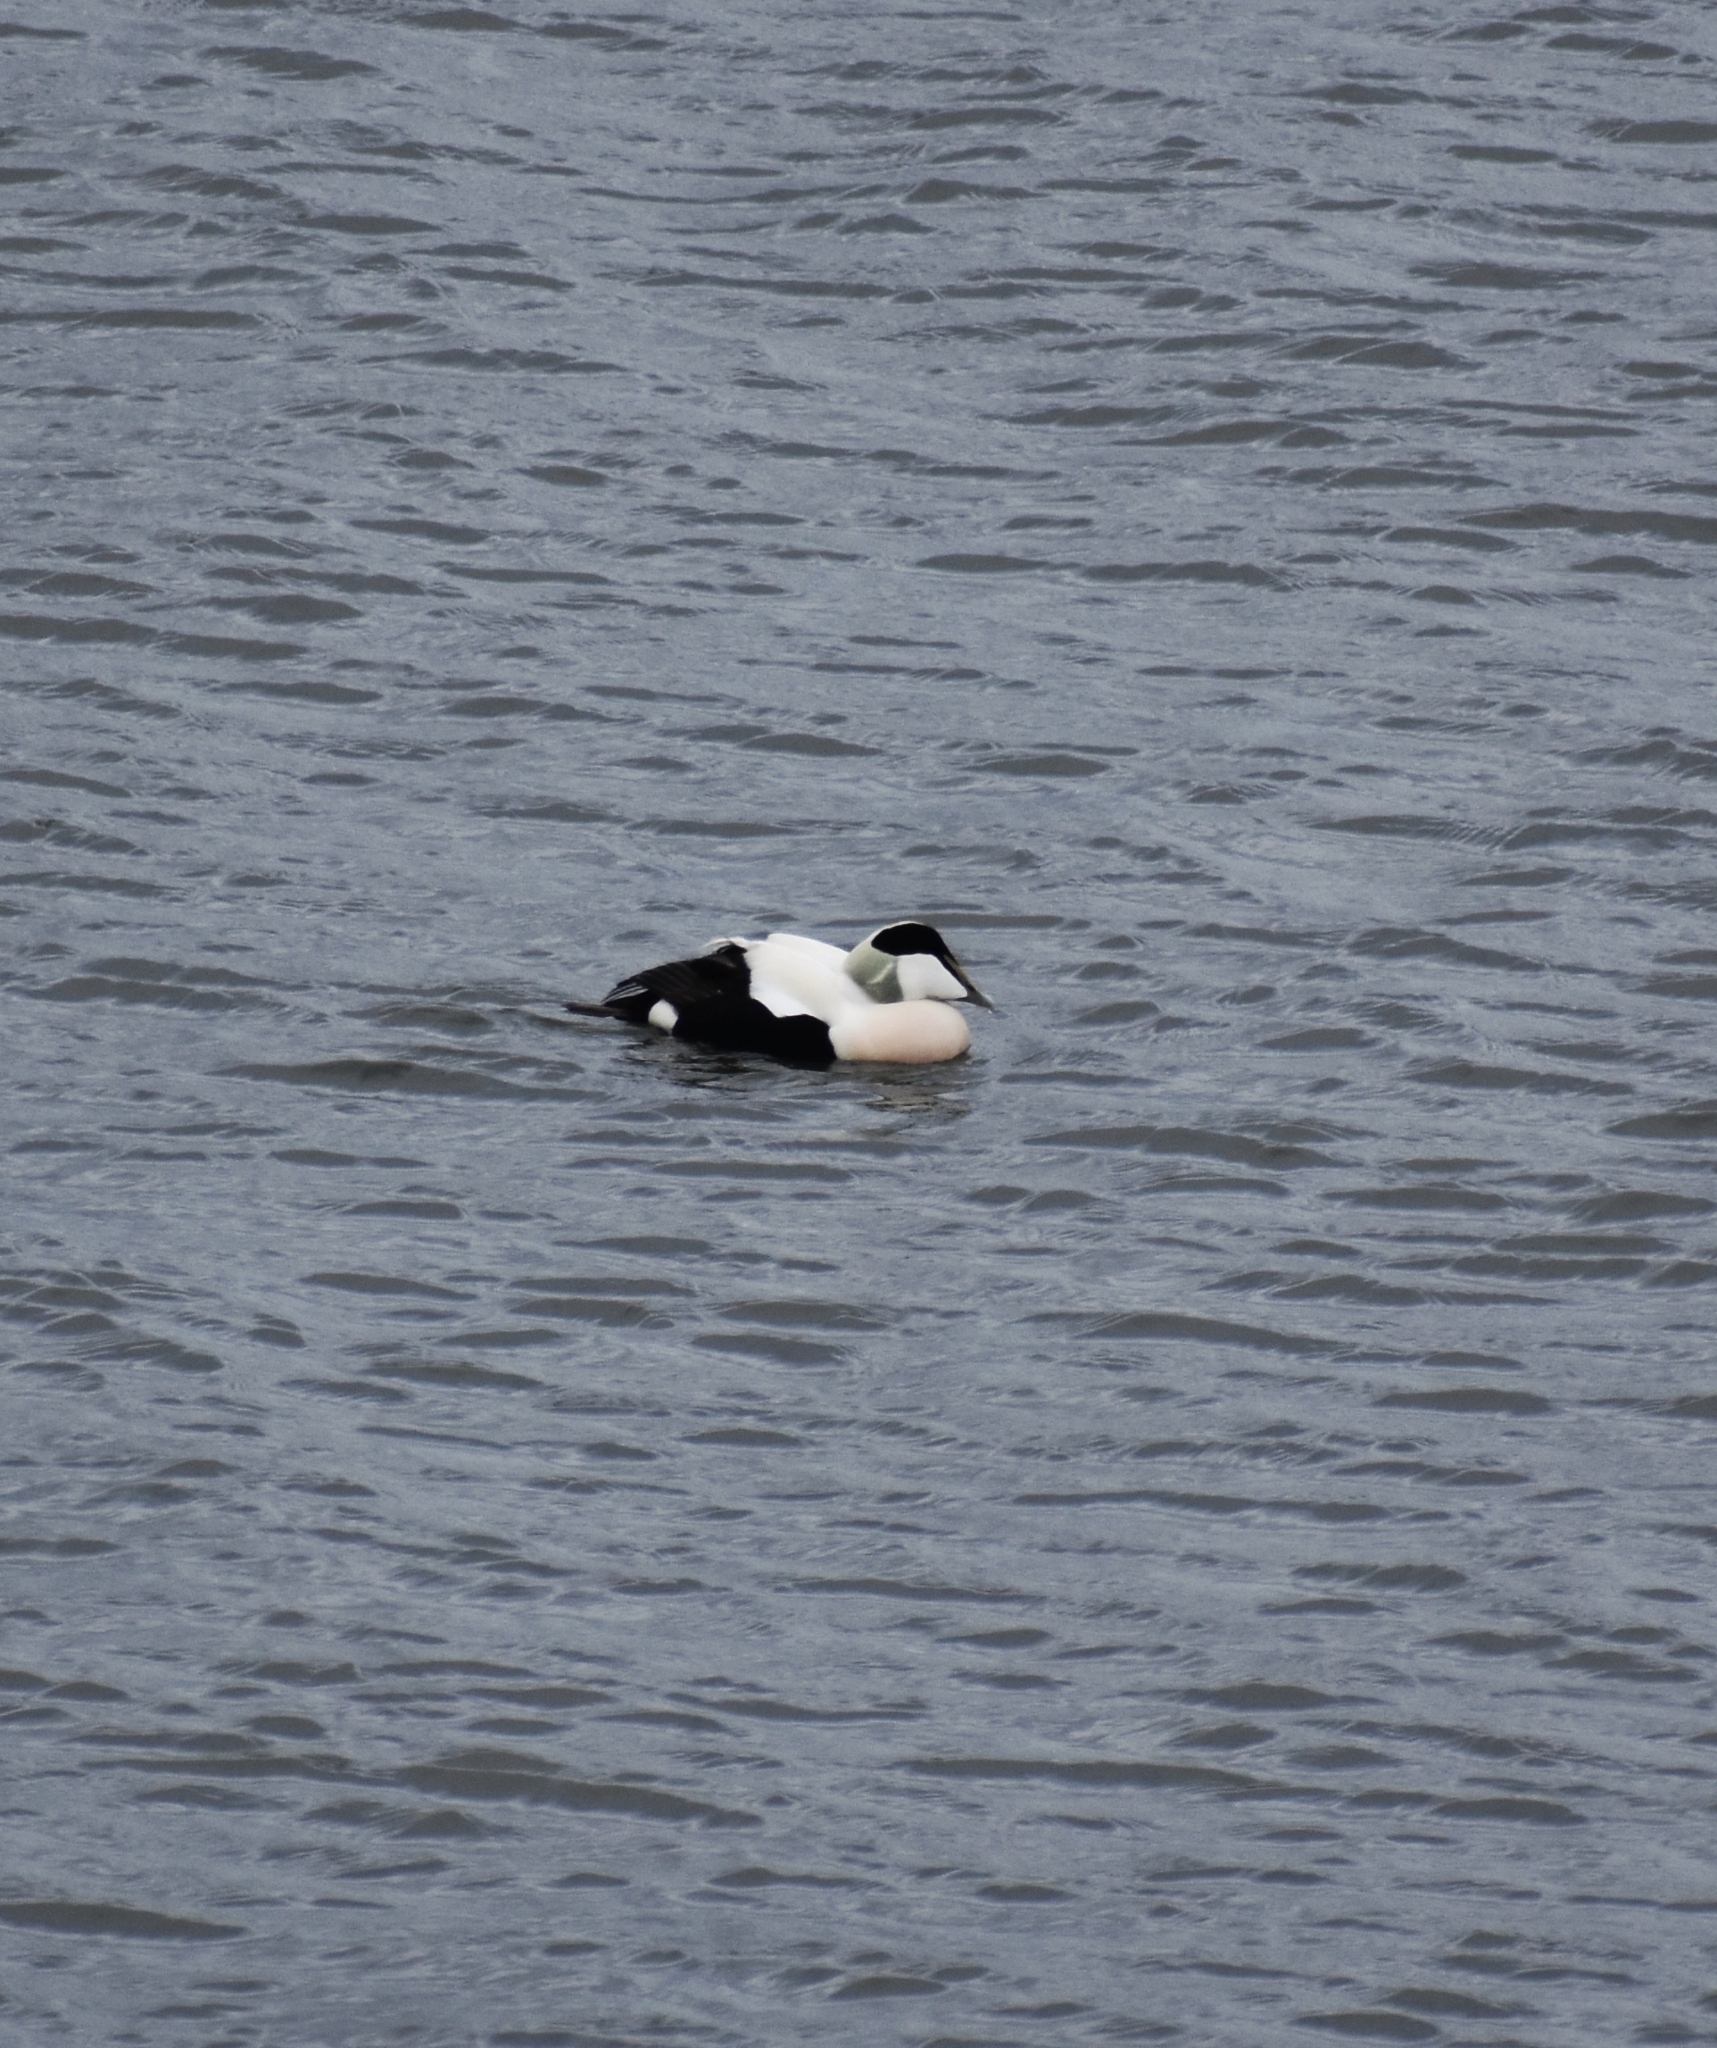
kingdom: Animalia
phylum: Chordata
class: Aves
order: Anseriformes
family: Anatidae
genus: Somateria
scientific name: Somateria mollissima
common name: Common eider
